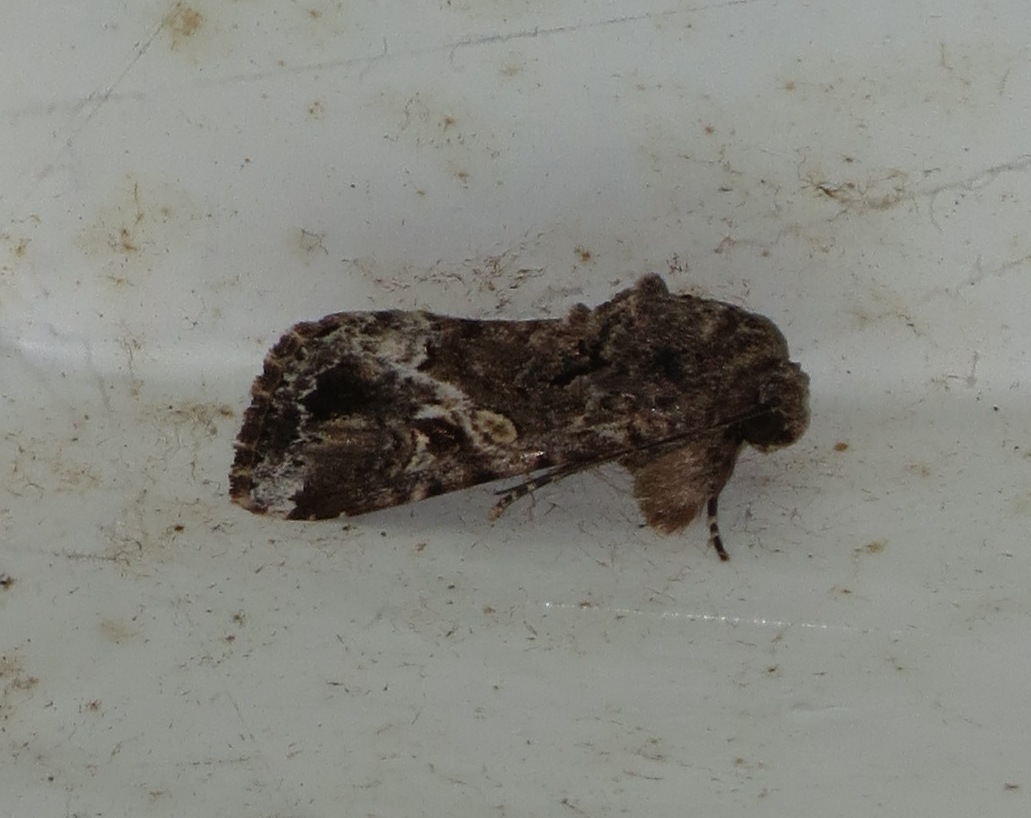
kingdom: Animalia
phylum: Arthropoda
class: Insecta
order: Lepidoptera
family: Noctuidae
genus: Spodoptera
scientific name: Spodoptera mauritia
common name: Lawn armyworm
